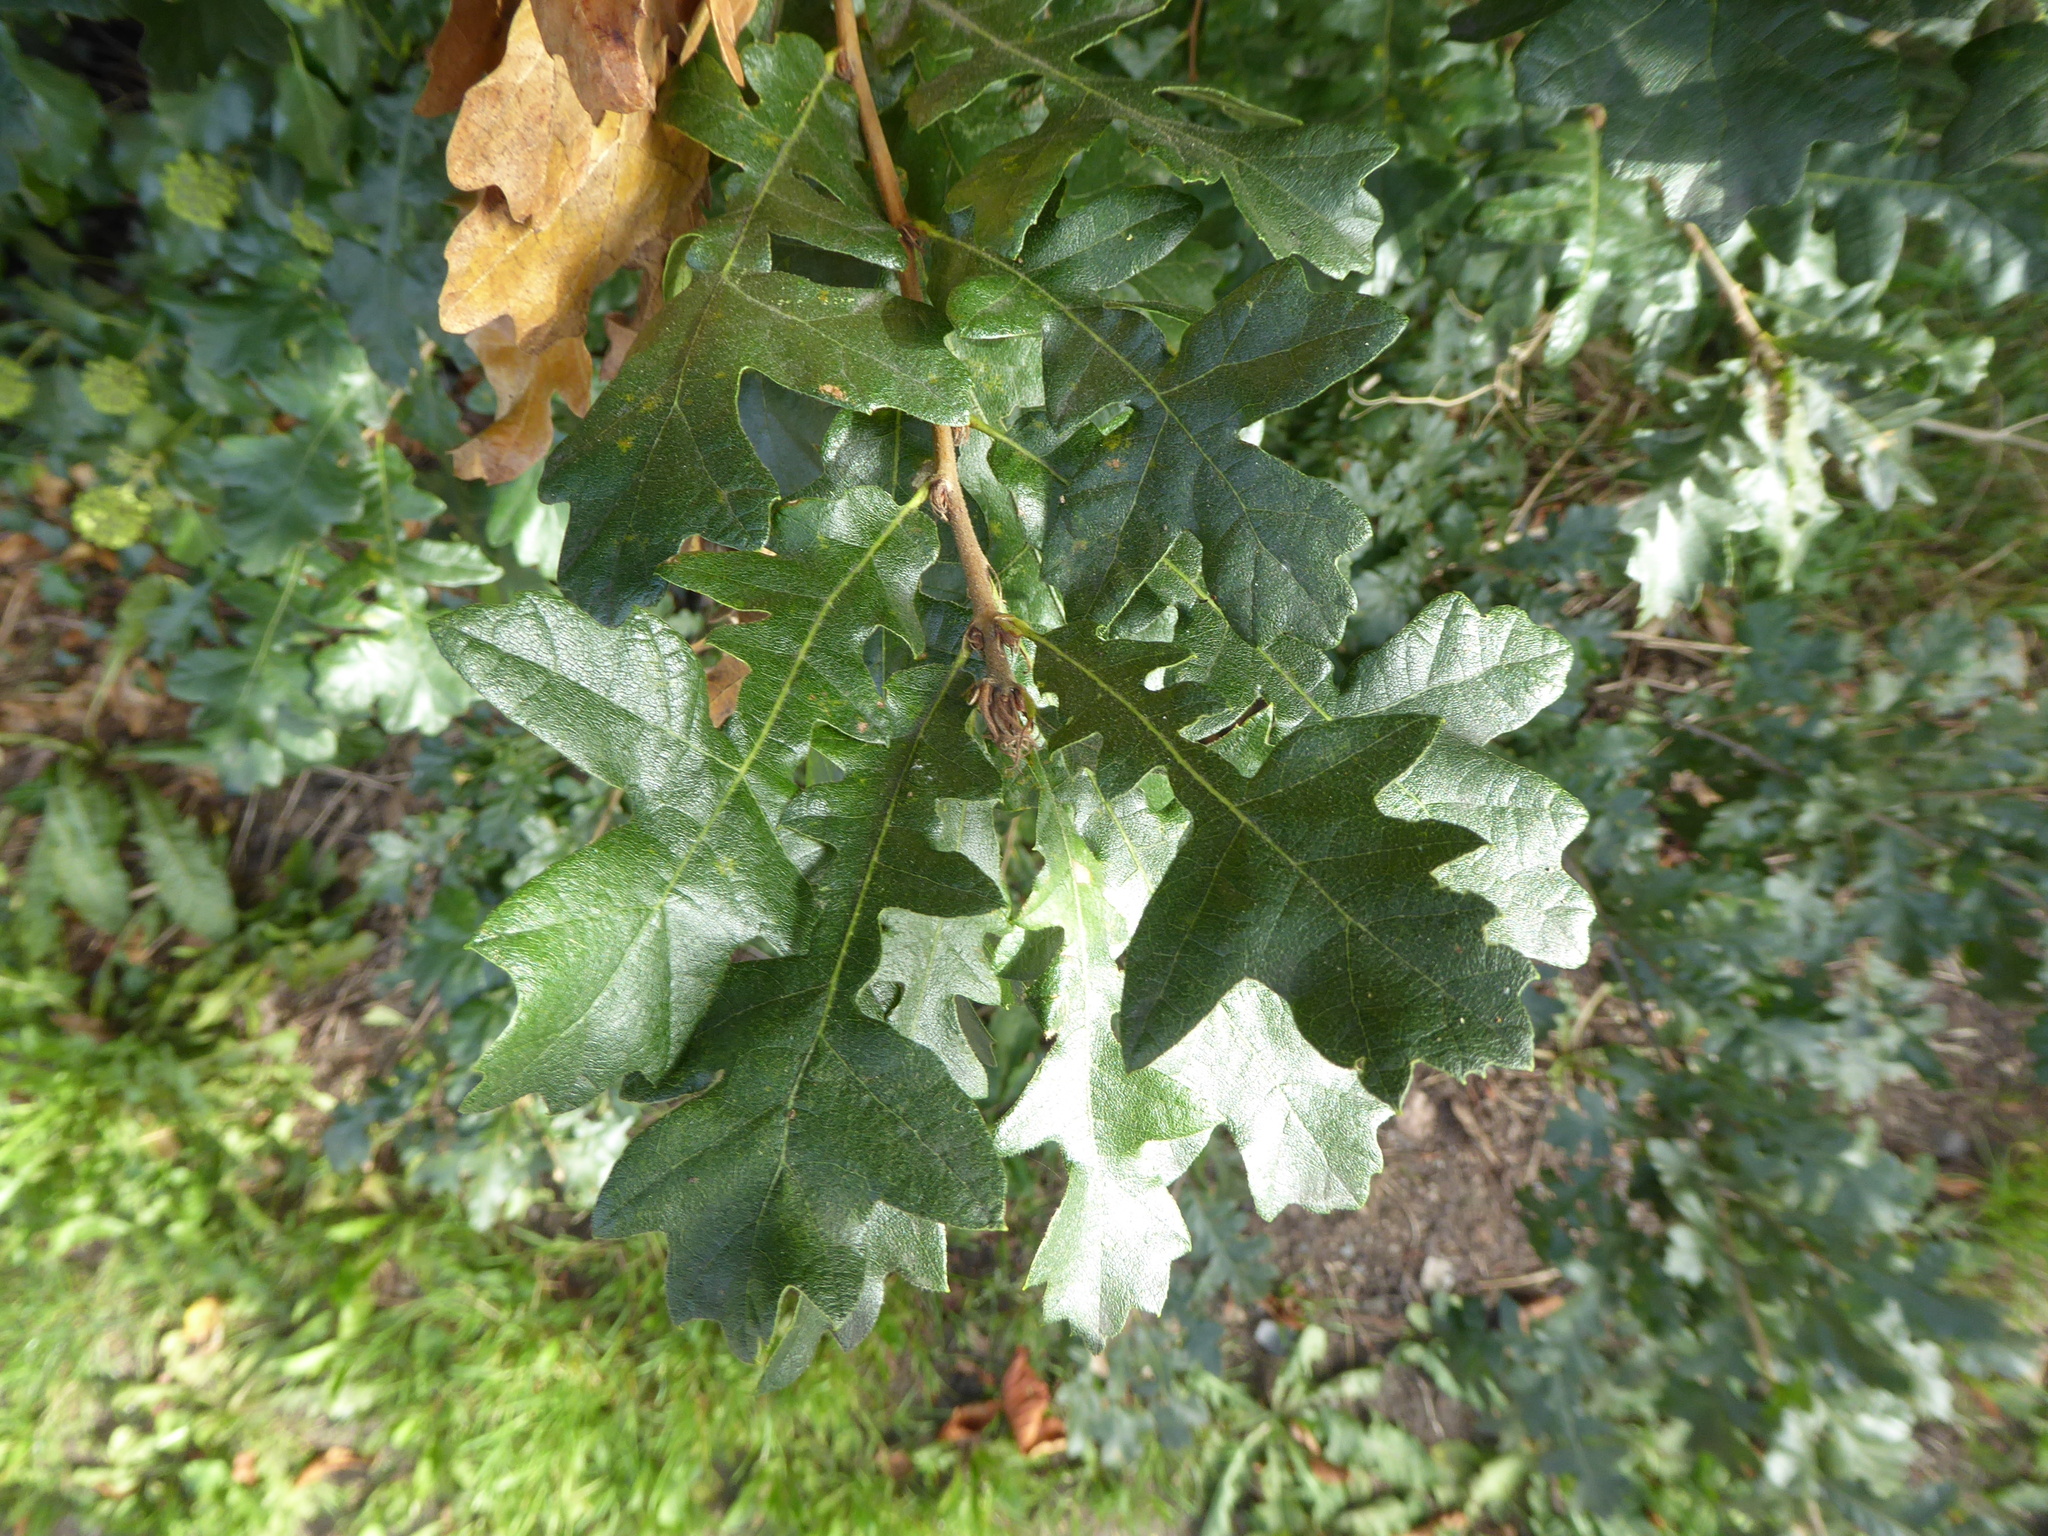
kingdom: Plantae
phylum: Tracheophyta
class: Magnoliopsida
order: Fagales
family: Fagaceae
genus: Quercus
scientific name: Quercus cerris
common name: Turkey oak
